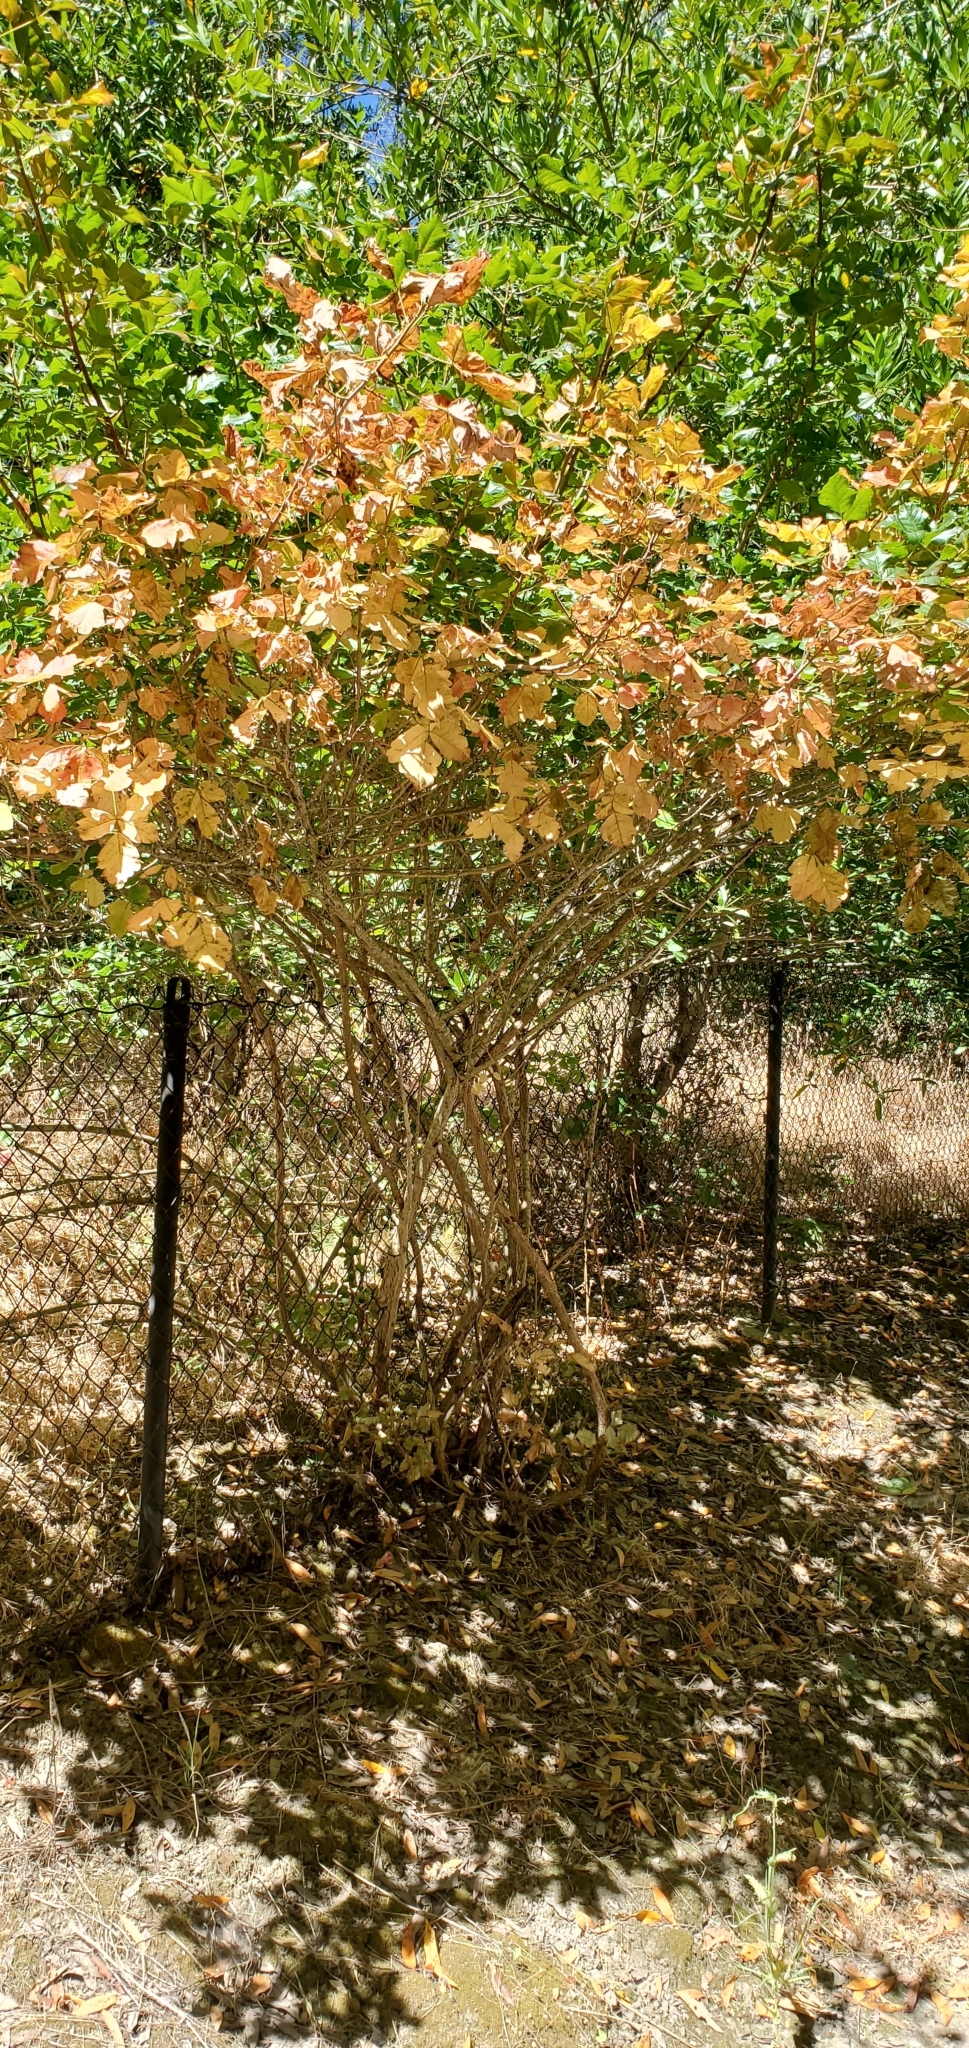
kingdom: Plantae
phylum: Tracheophyta
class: Magnoliopsida
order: Sapindales
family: Anacardiaceae
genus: Toxicodendron
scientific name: Toxicodendron diversilobum
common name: Pacific poison-oak
